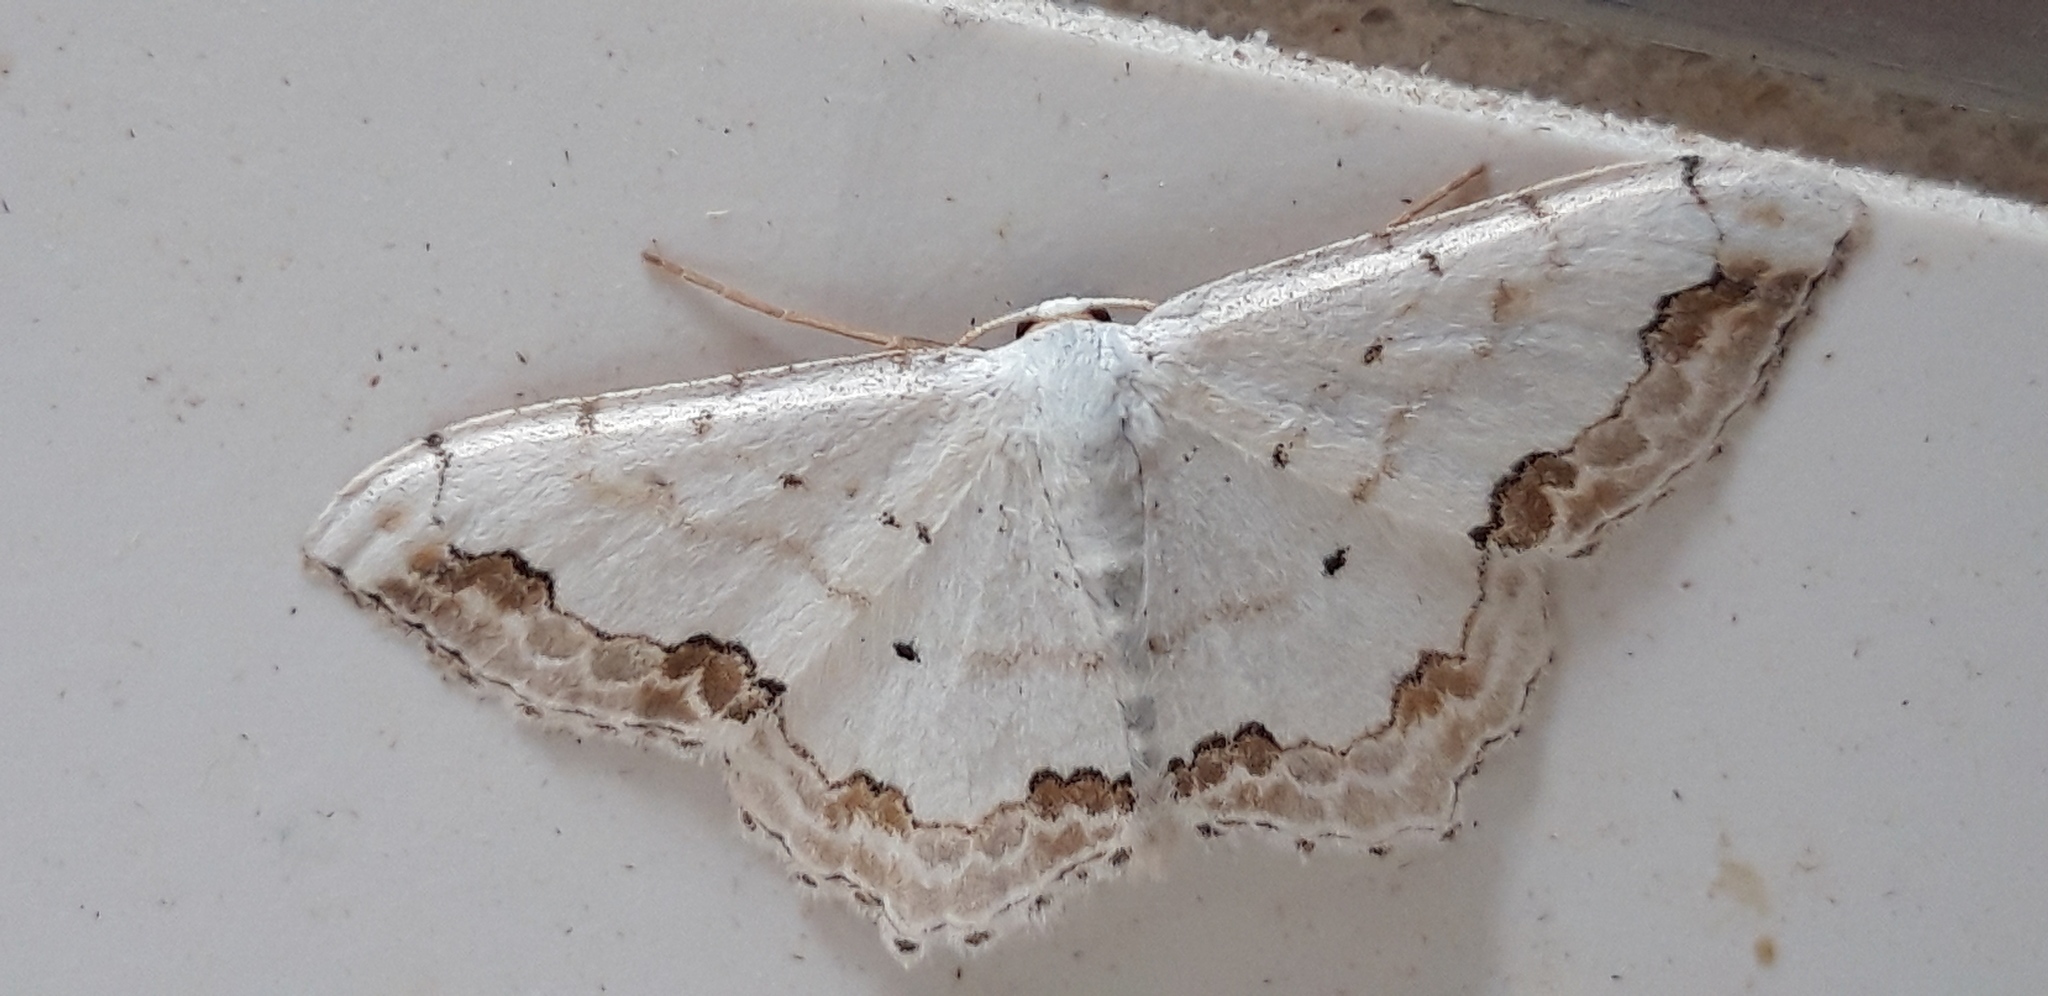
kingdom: Animalia
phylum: Arthropoda
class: Insecta
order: Lepidoptera
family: Geometridae
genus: Scopula
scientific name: Scopula ornata
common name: Lace border
